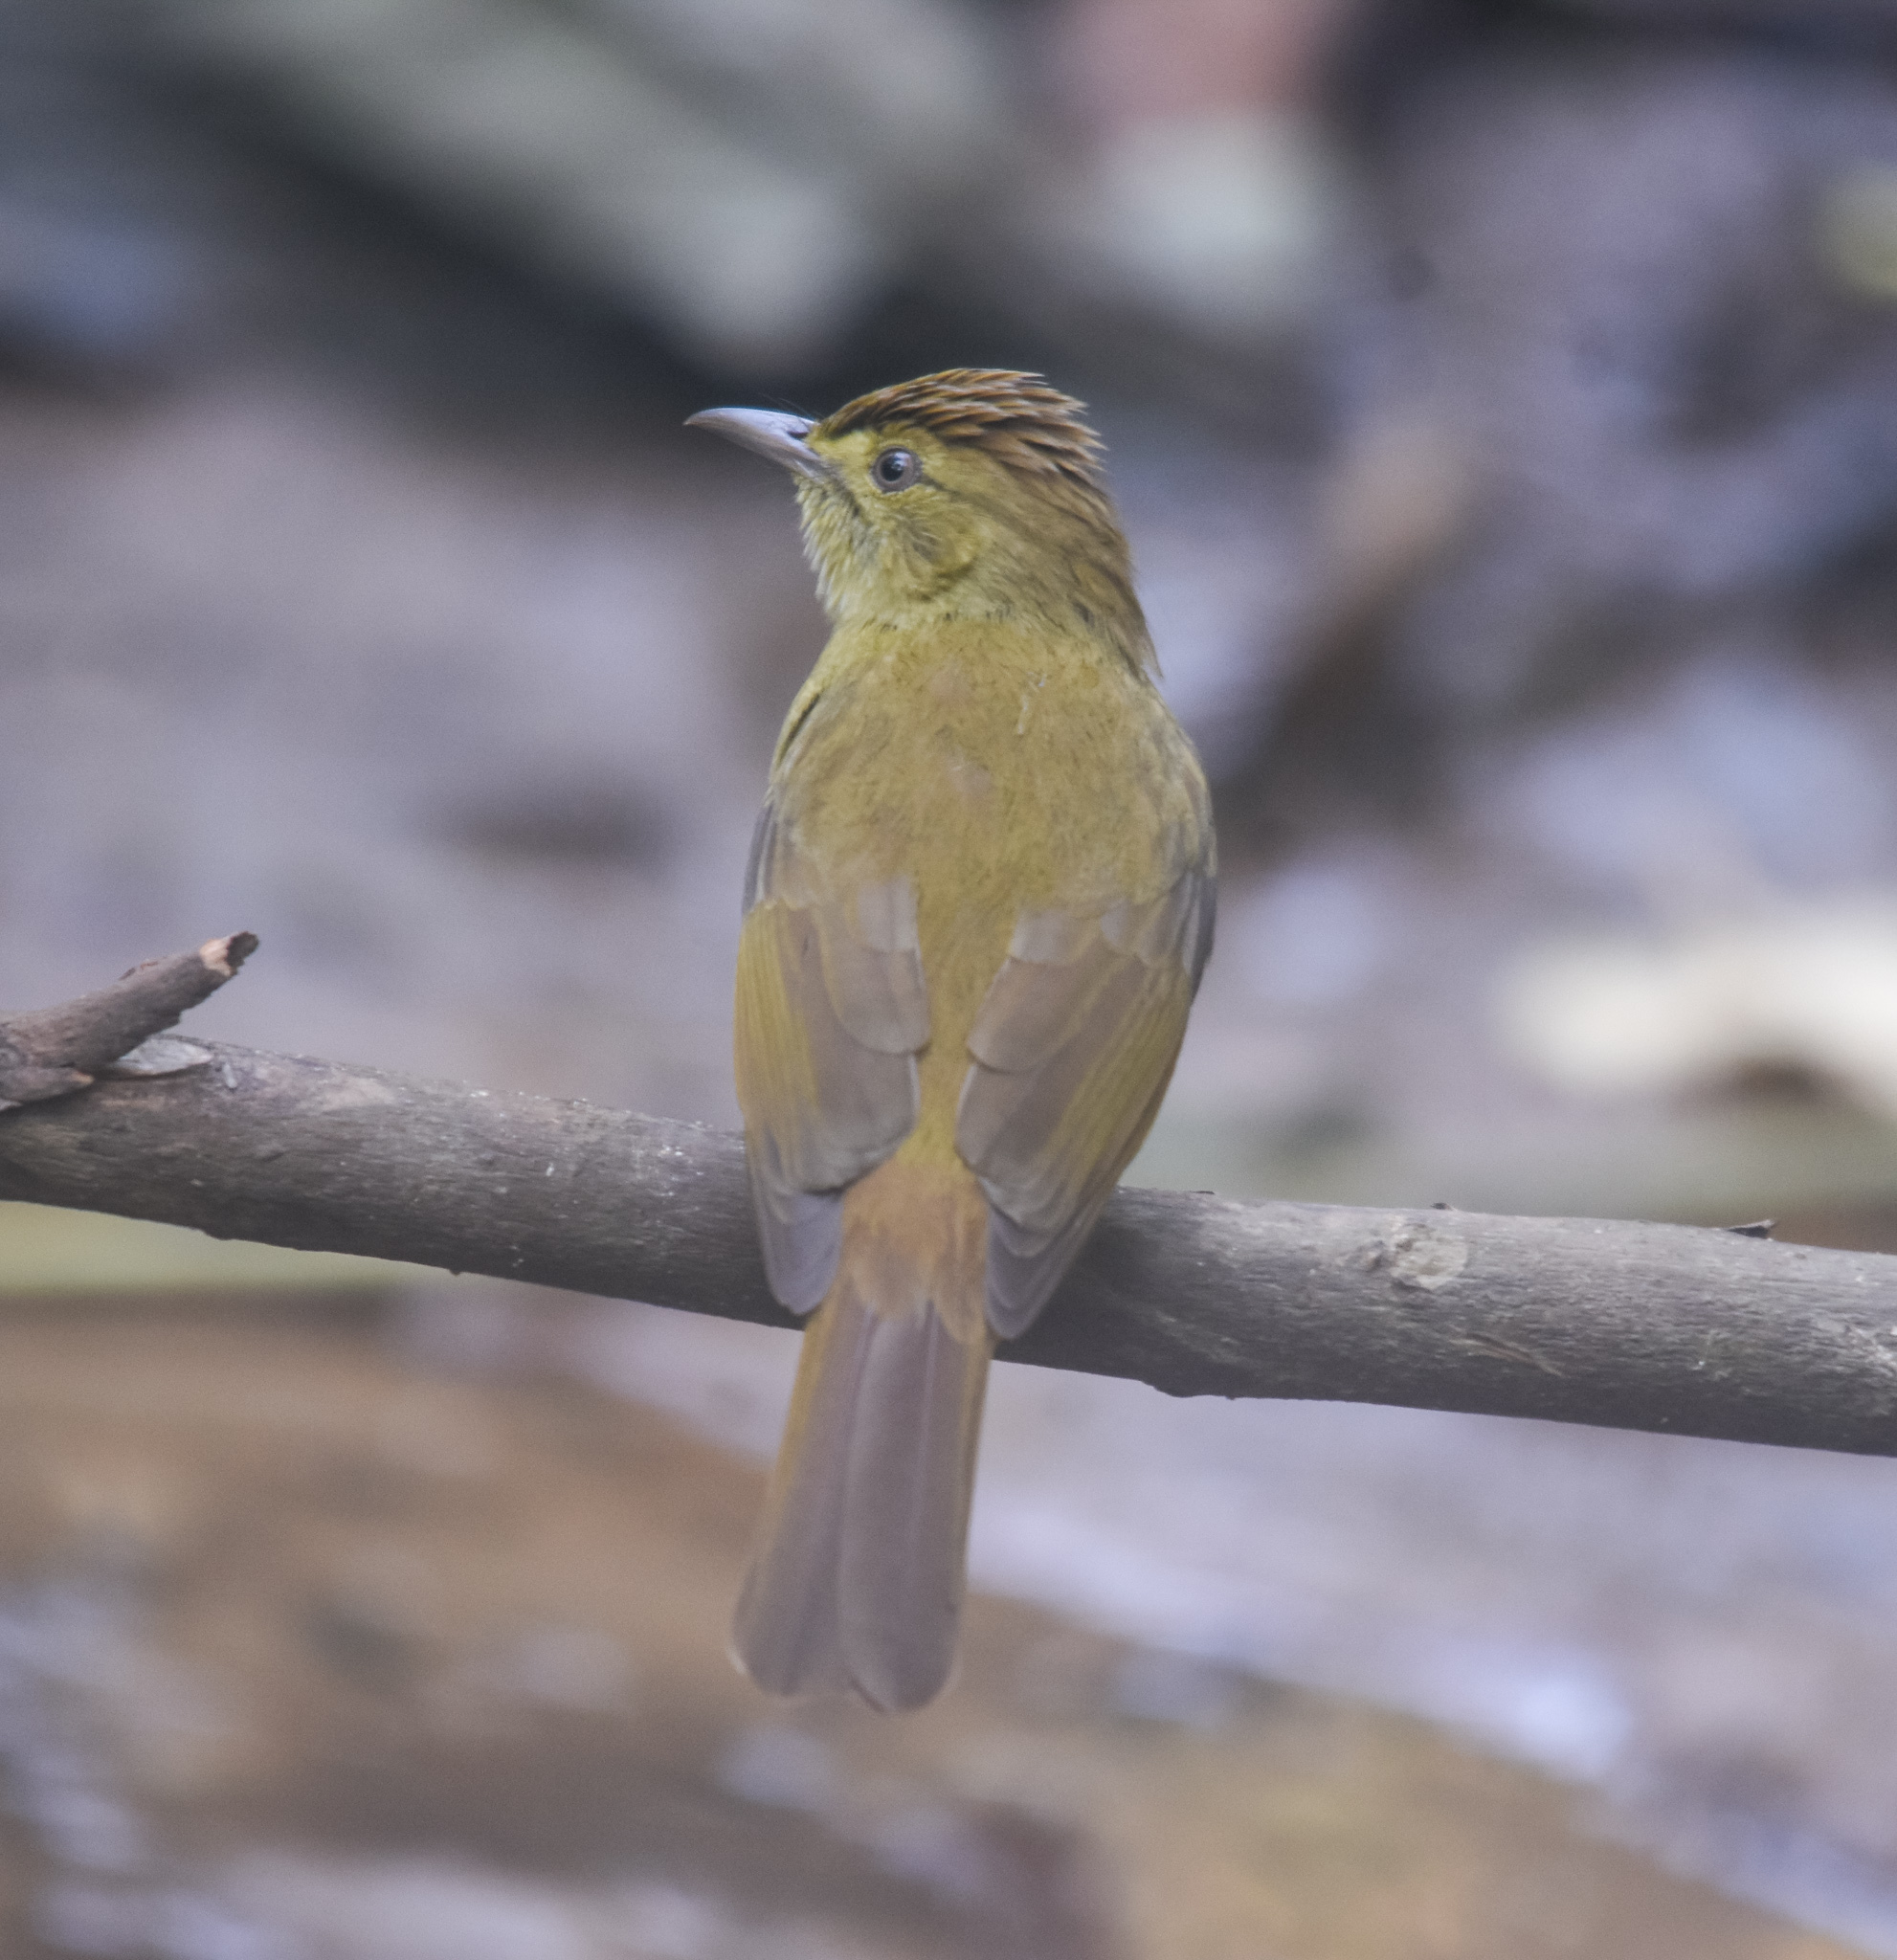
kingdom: Animalia
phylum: Chordata
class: Aves
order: Passeriformes
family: Pycnonotidae
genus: Iole
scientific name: Iole virescens
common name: Olive bulbul
